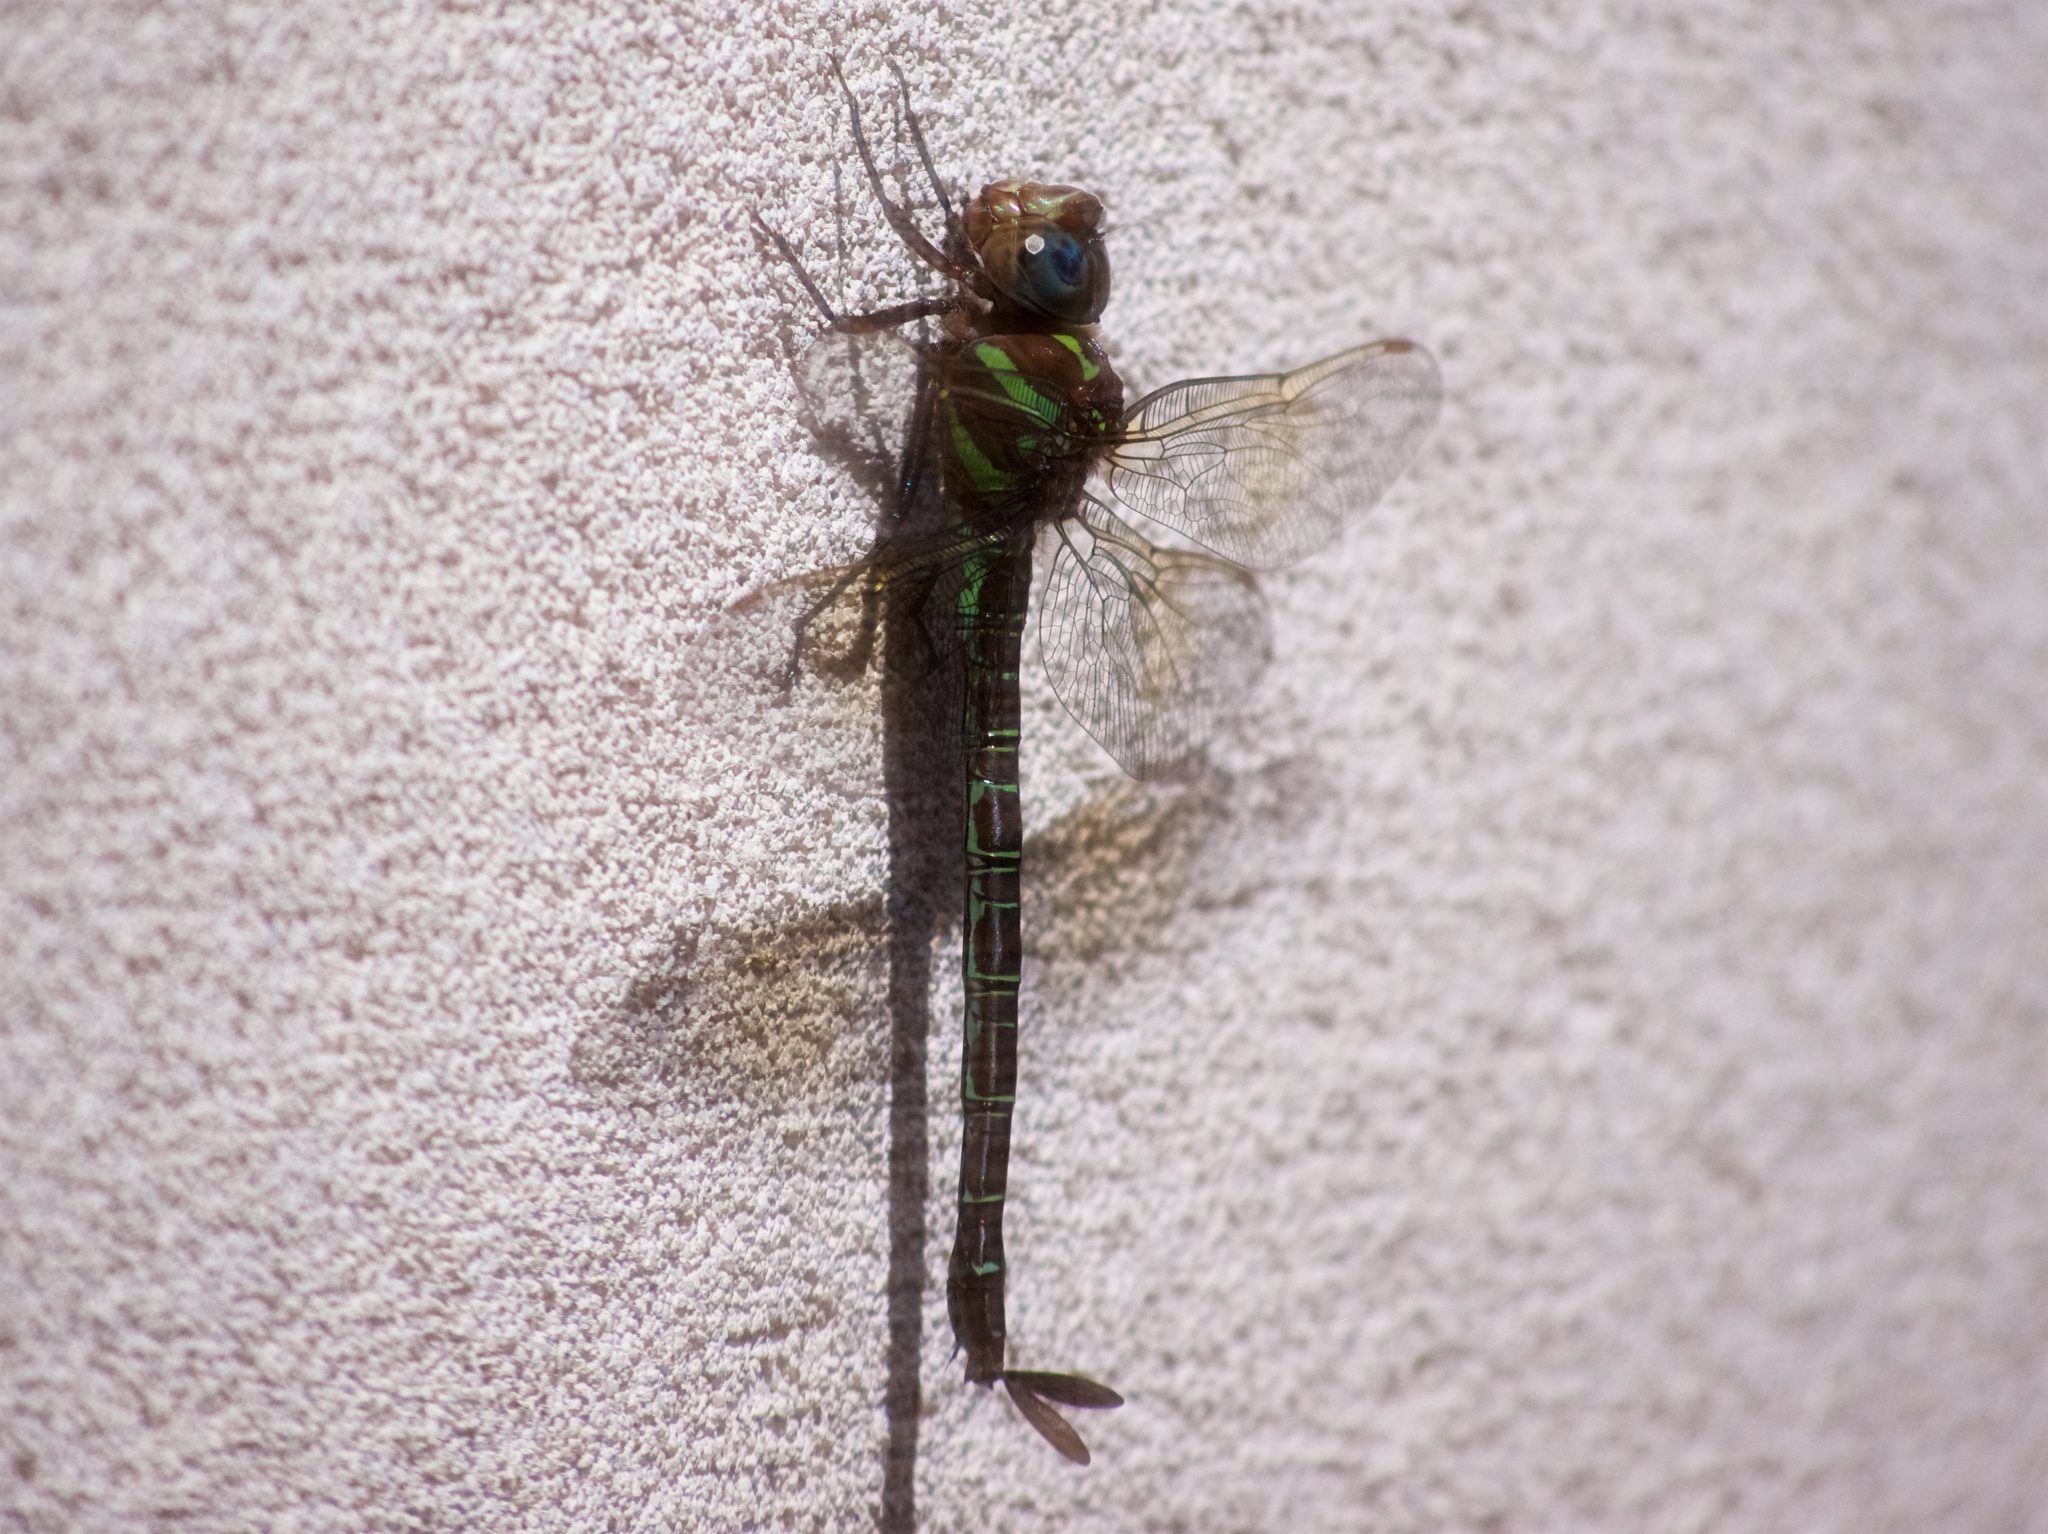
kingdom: Animalia
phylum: Arthropoda
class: Insecta
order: Odonata
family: Aeshnidae
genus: Epiaeschna
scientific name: Epiaeschna heros
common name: Swamp darner
